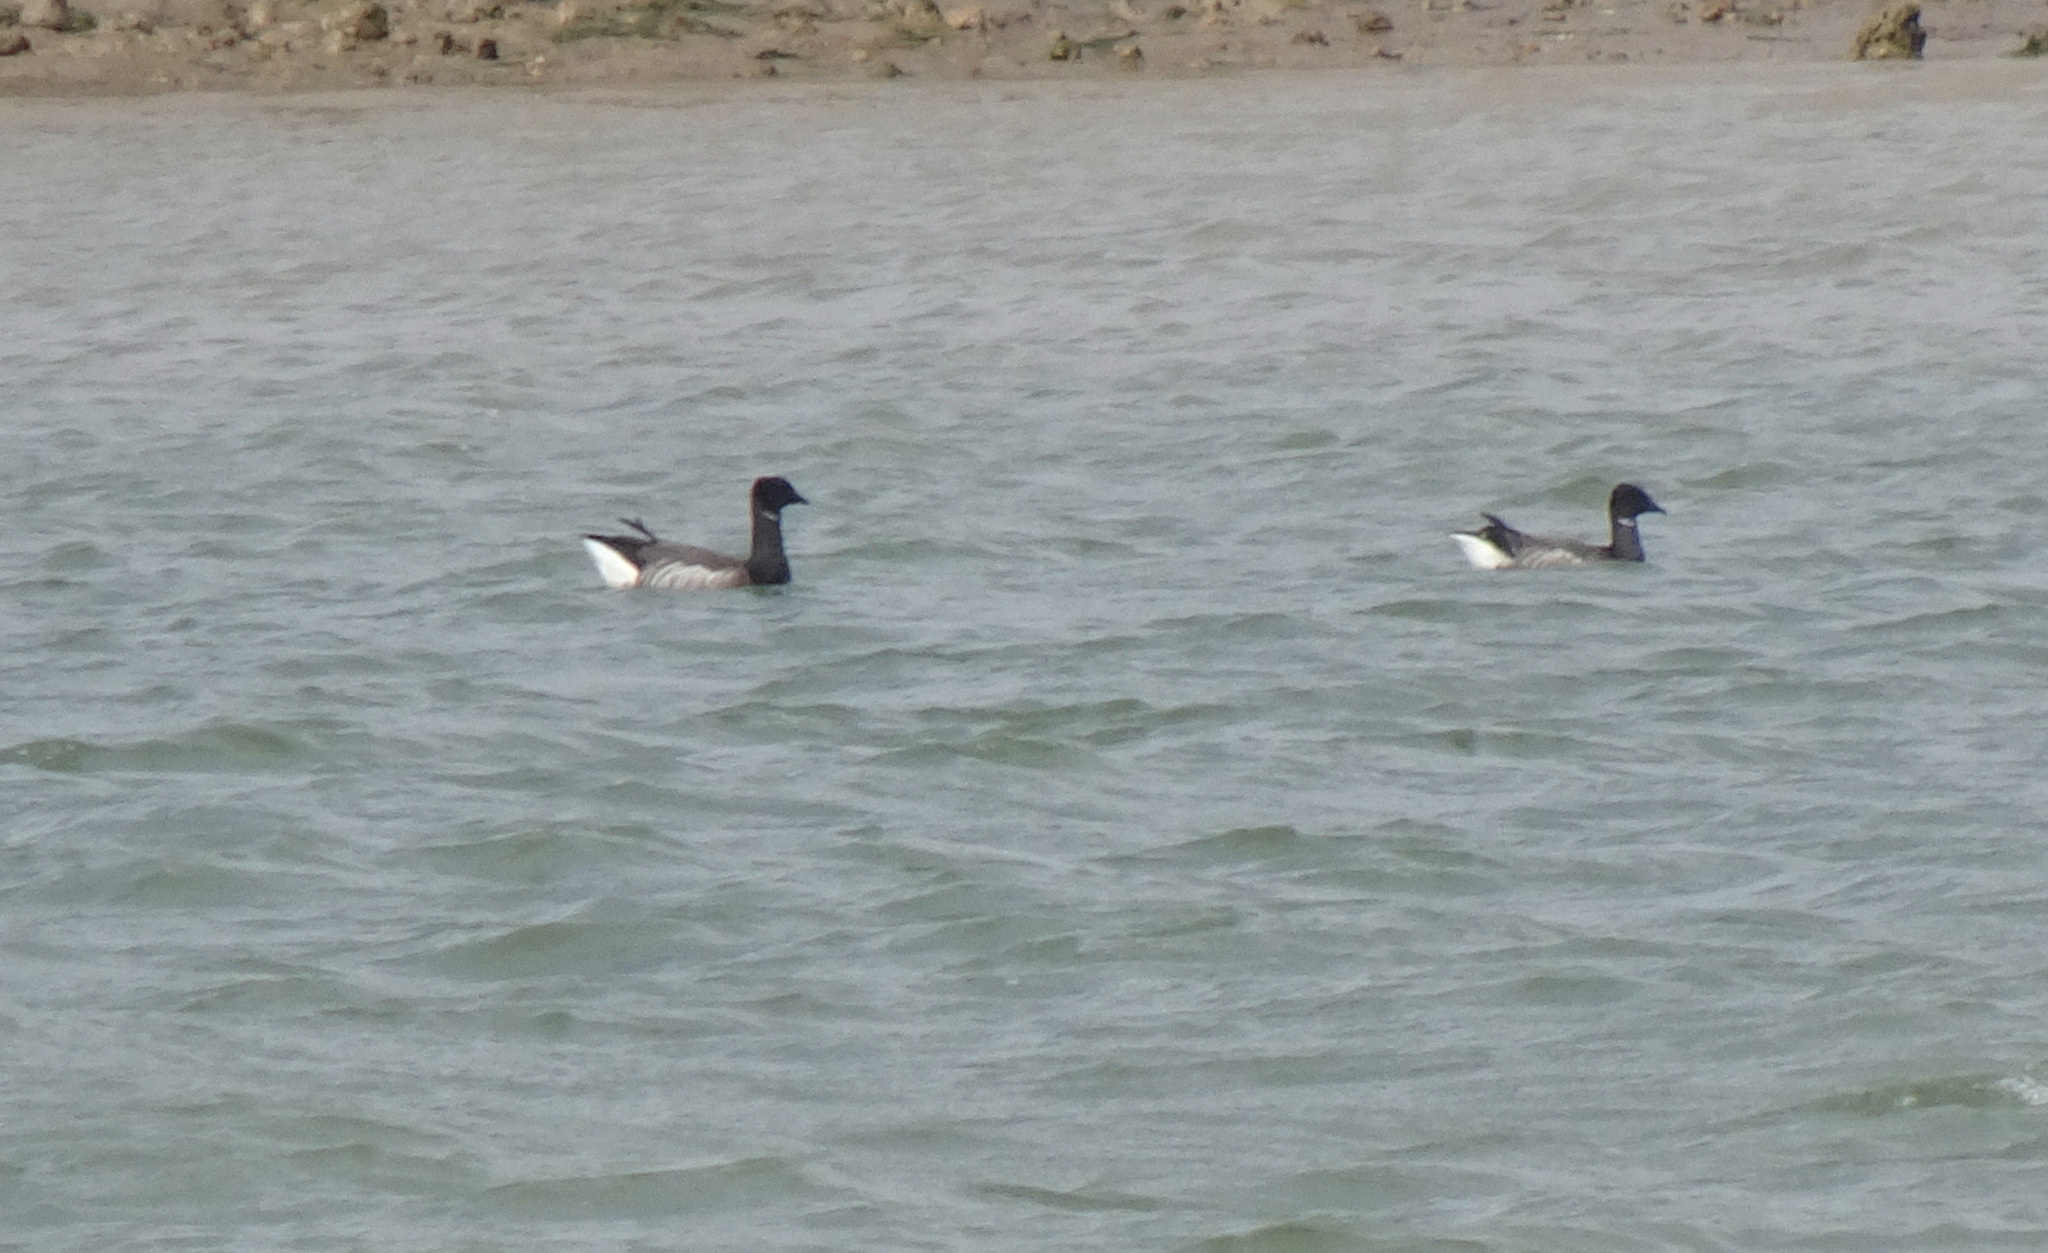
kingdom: Animalia
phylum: Chordata
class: Aves
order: Anseriformes
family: Anatidae
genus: Branta
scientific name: Branta bernicla
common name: Brant goose
